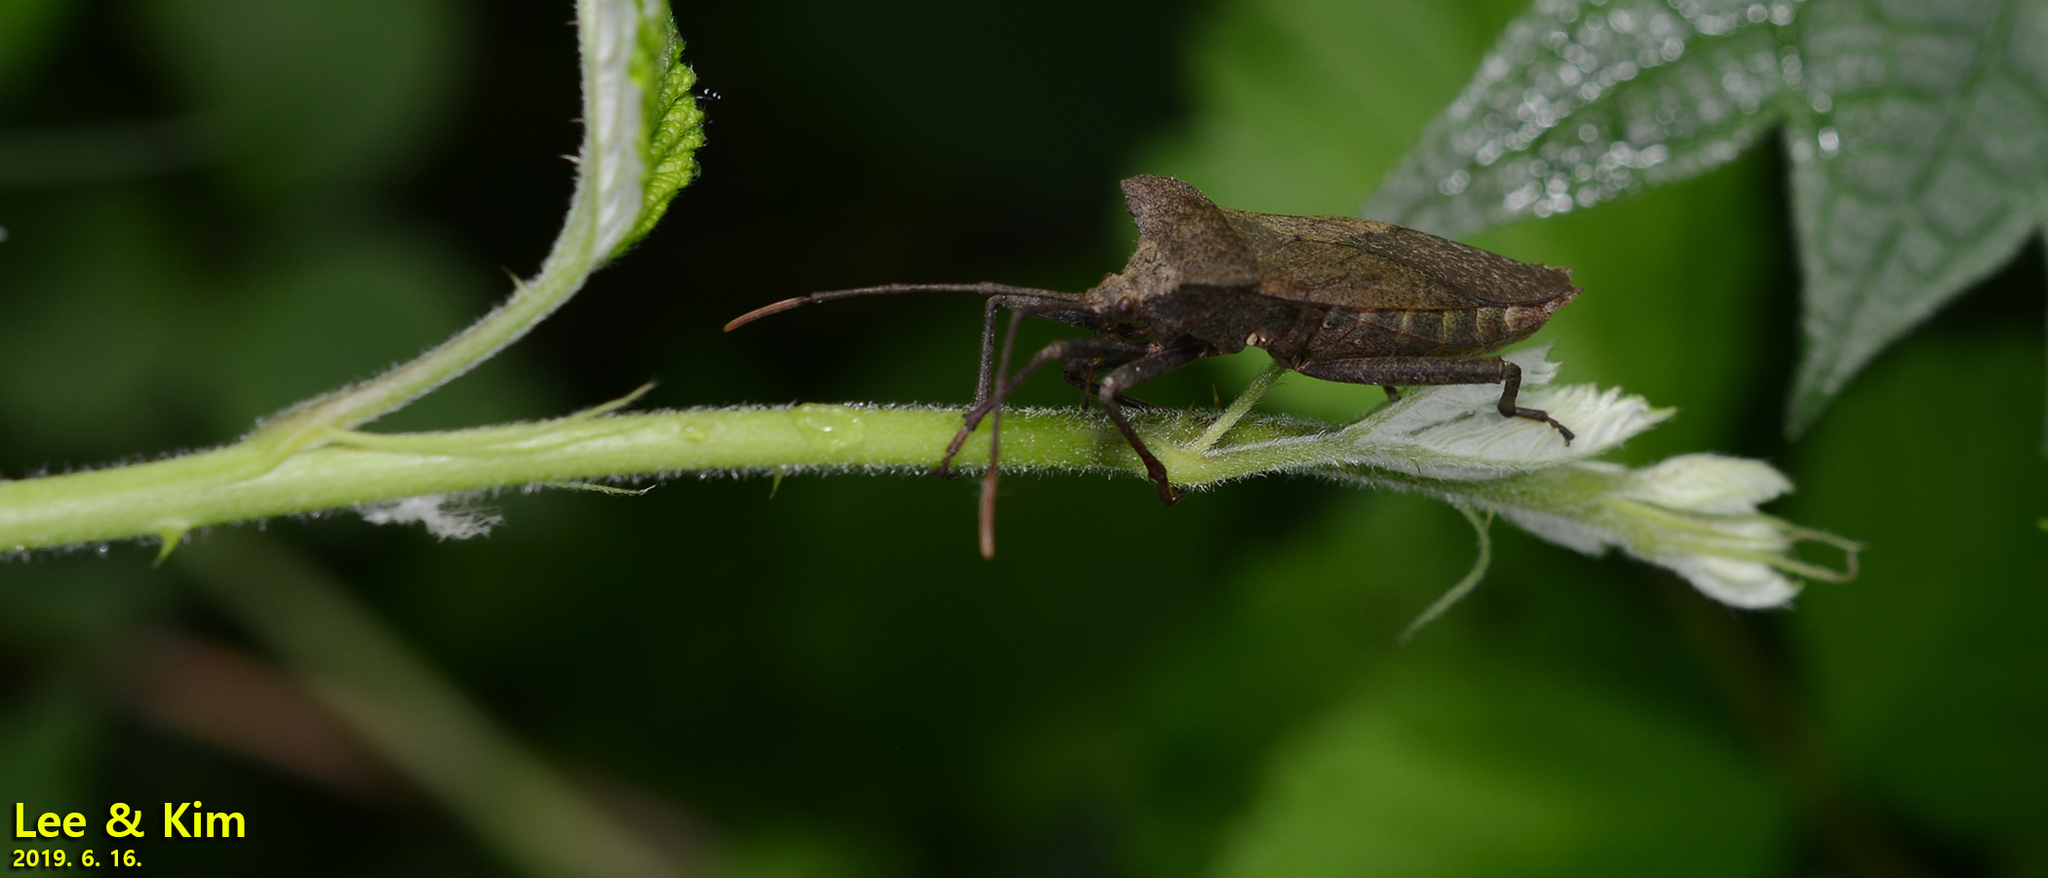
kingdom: Animalia
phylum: Arthropoda
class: Insecta
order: Hemiptera
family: Coreidae
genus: Molipteryx
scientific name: Molipteryx fuliginosa
